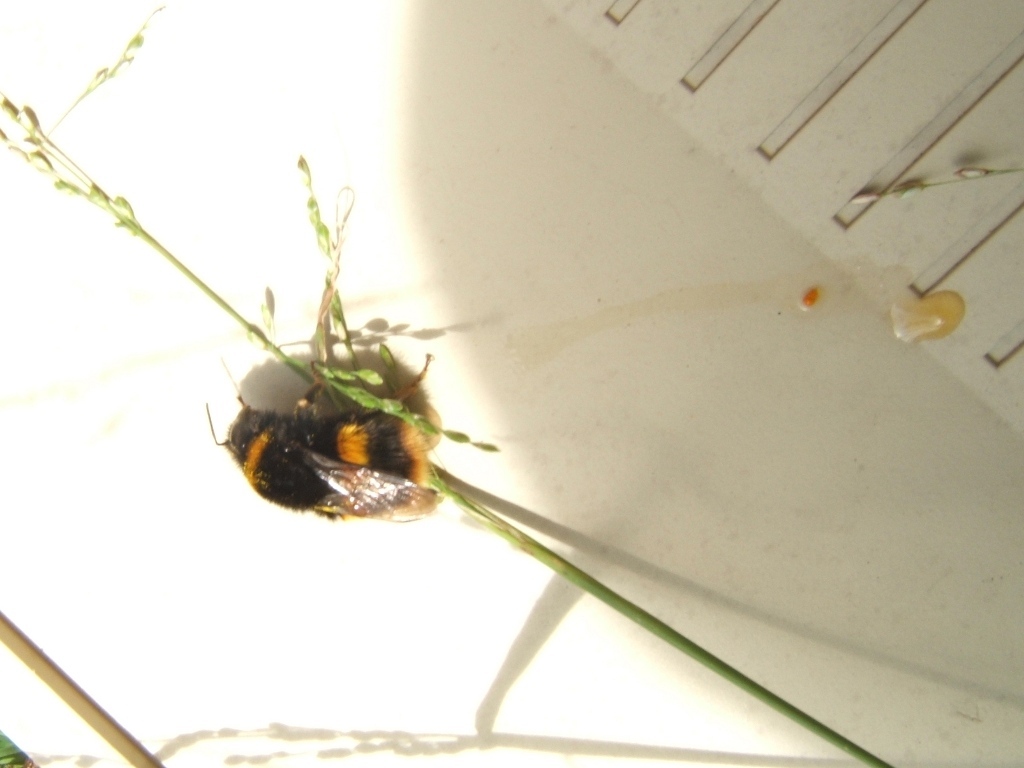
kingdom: Animalia
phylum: Arthropoda
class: Insecta
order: Hymenoptera
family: Apidae
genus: Bombus
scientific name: Bombus terrestris
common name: Buff-tailed bumblebee
